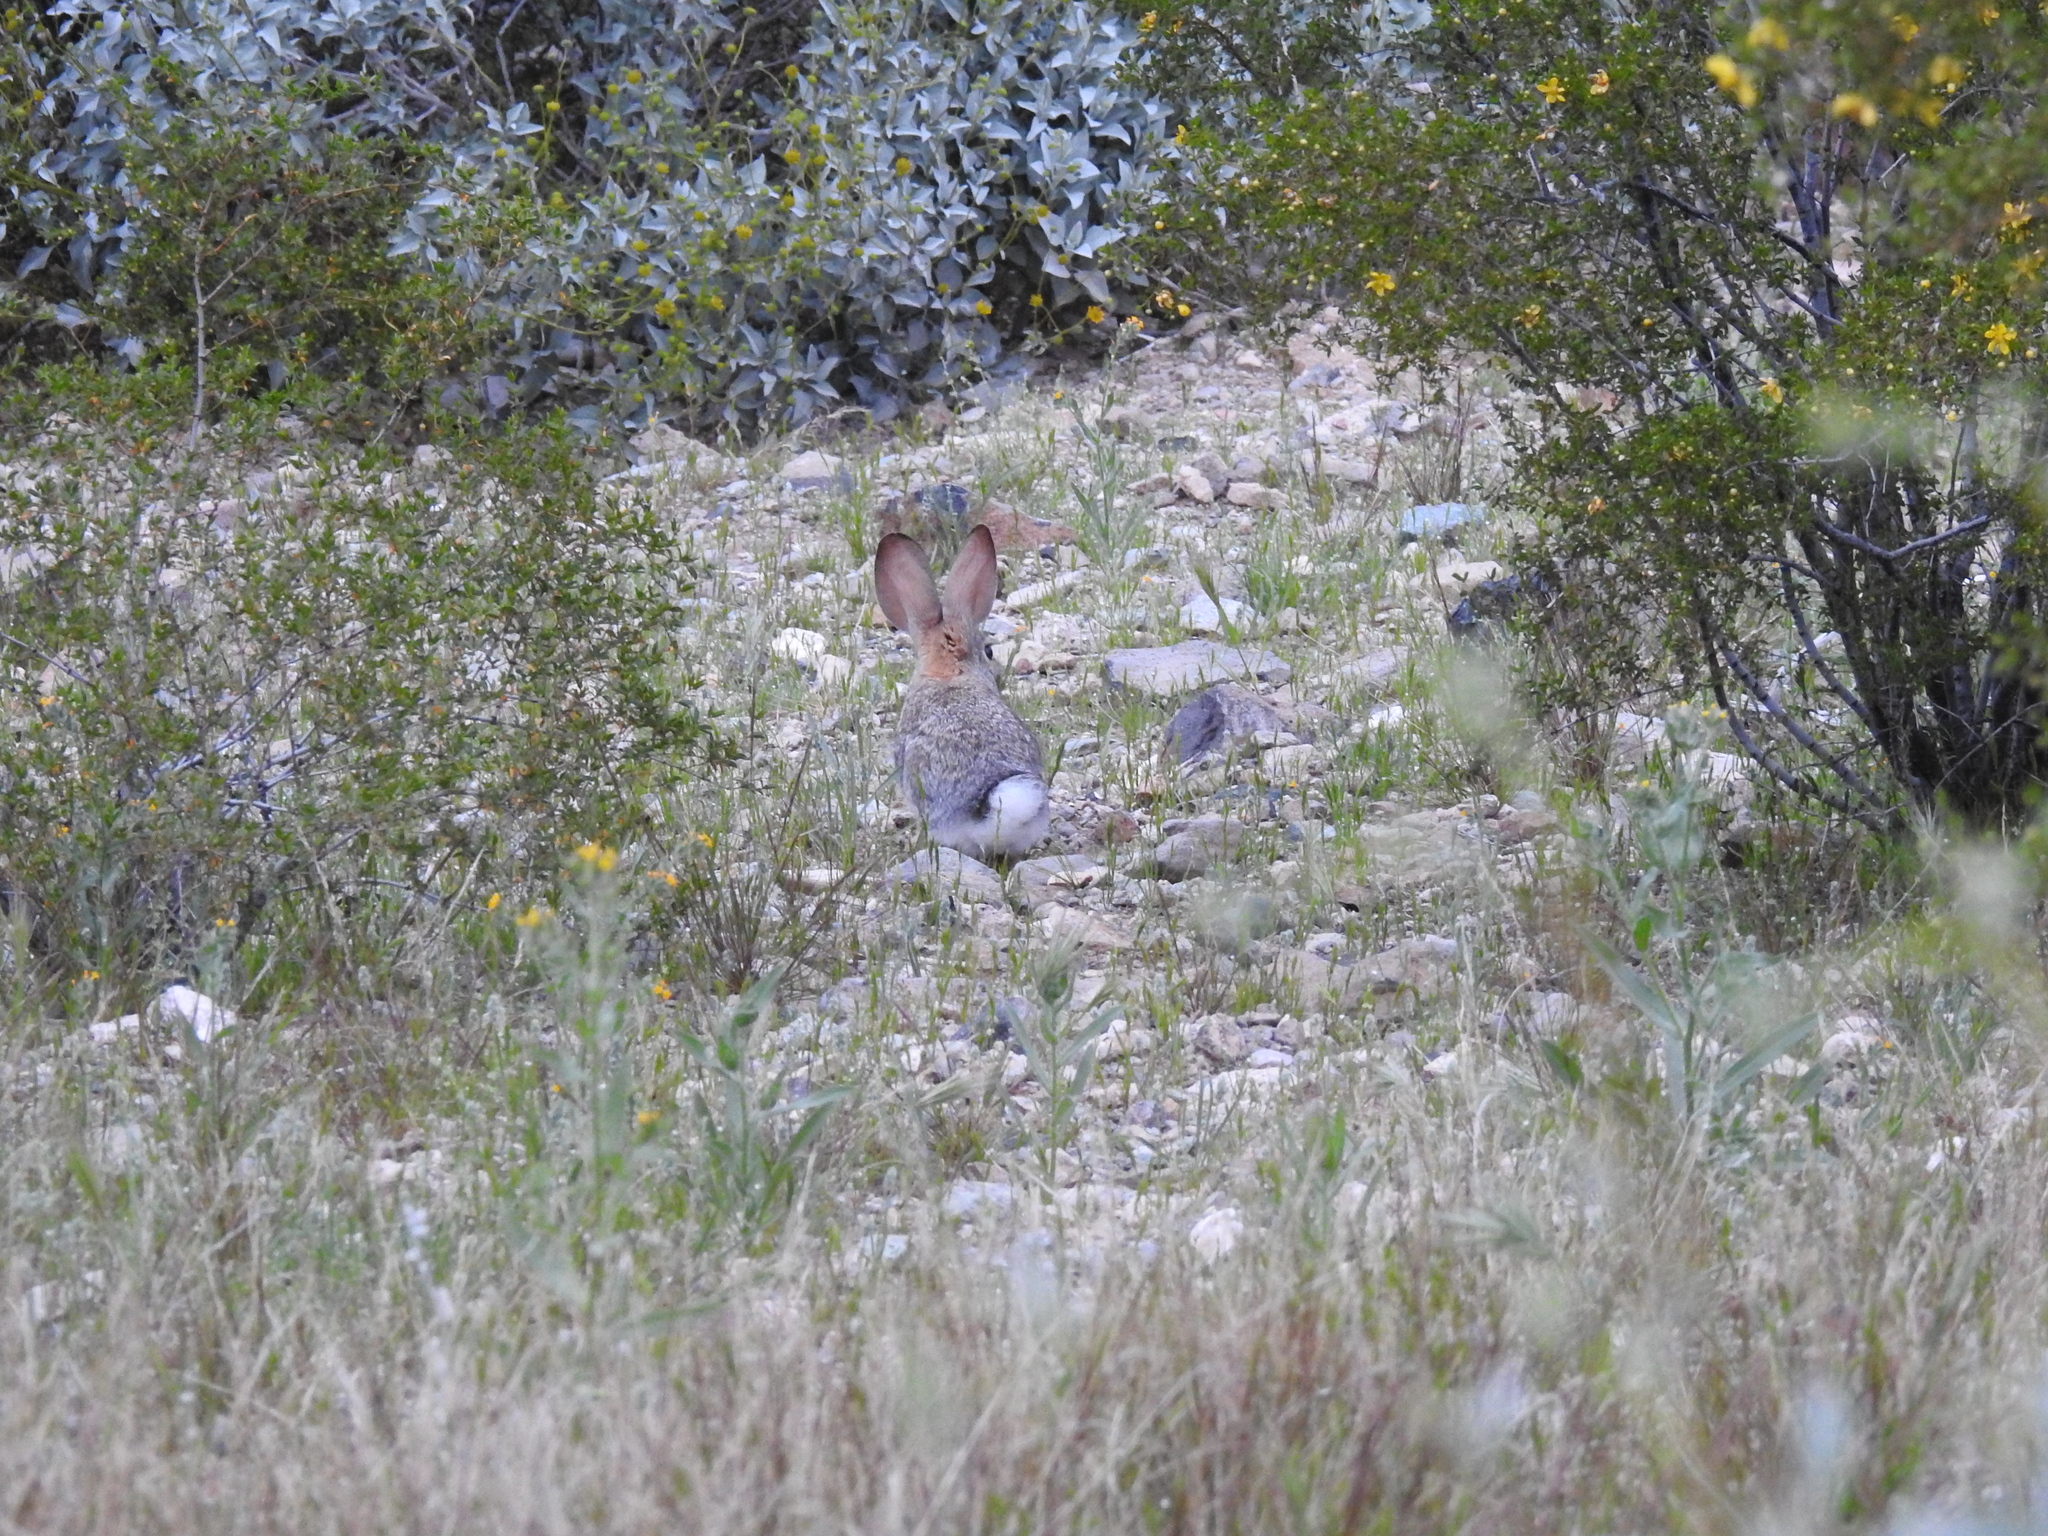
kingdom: Animalia
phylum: Chordata
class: Mammalia
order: Lagomorpha
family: Leporidae
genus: Sylvilagus
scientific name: Sylvilagus audubonii
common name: Desert cottontail
